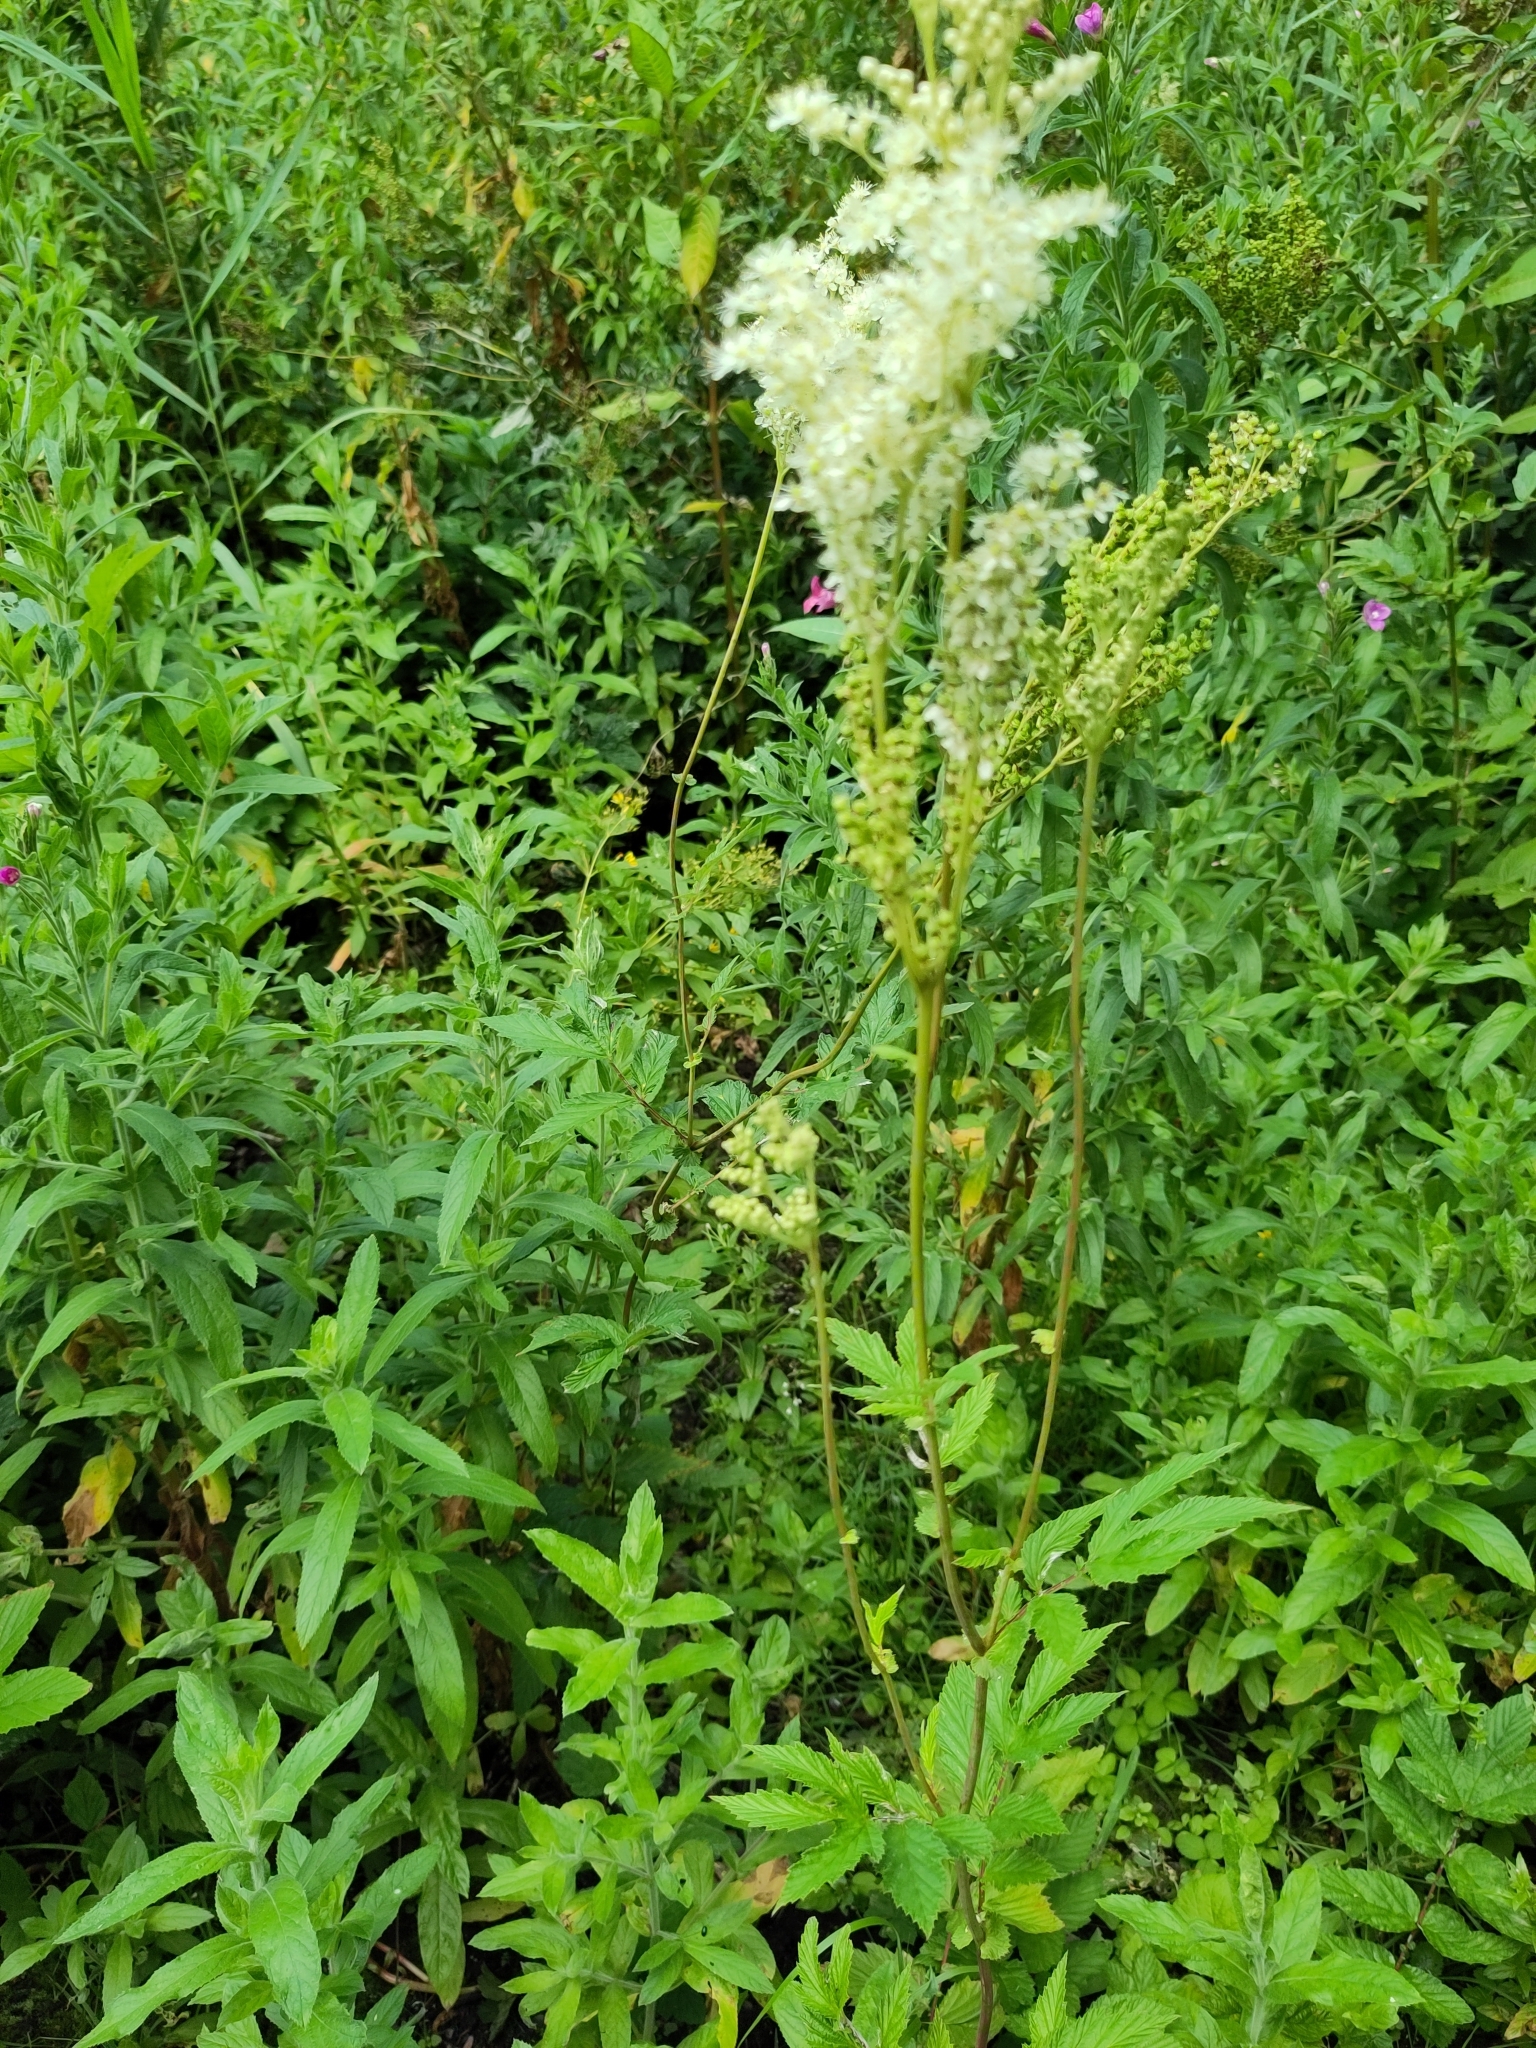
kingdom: Plantae
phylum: Tracheophyta
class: Magnoliopsida
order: Rosales
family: Rosaceae
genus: Filipendula
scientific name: Filipendula ulmaria
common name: Meadowsweet
